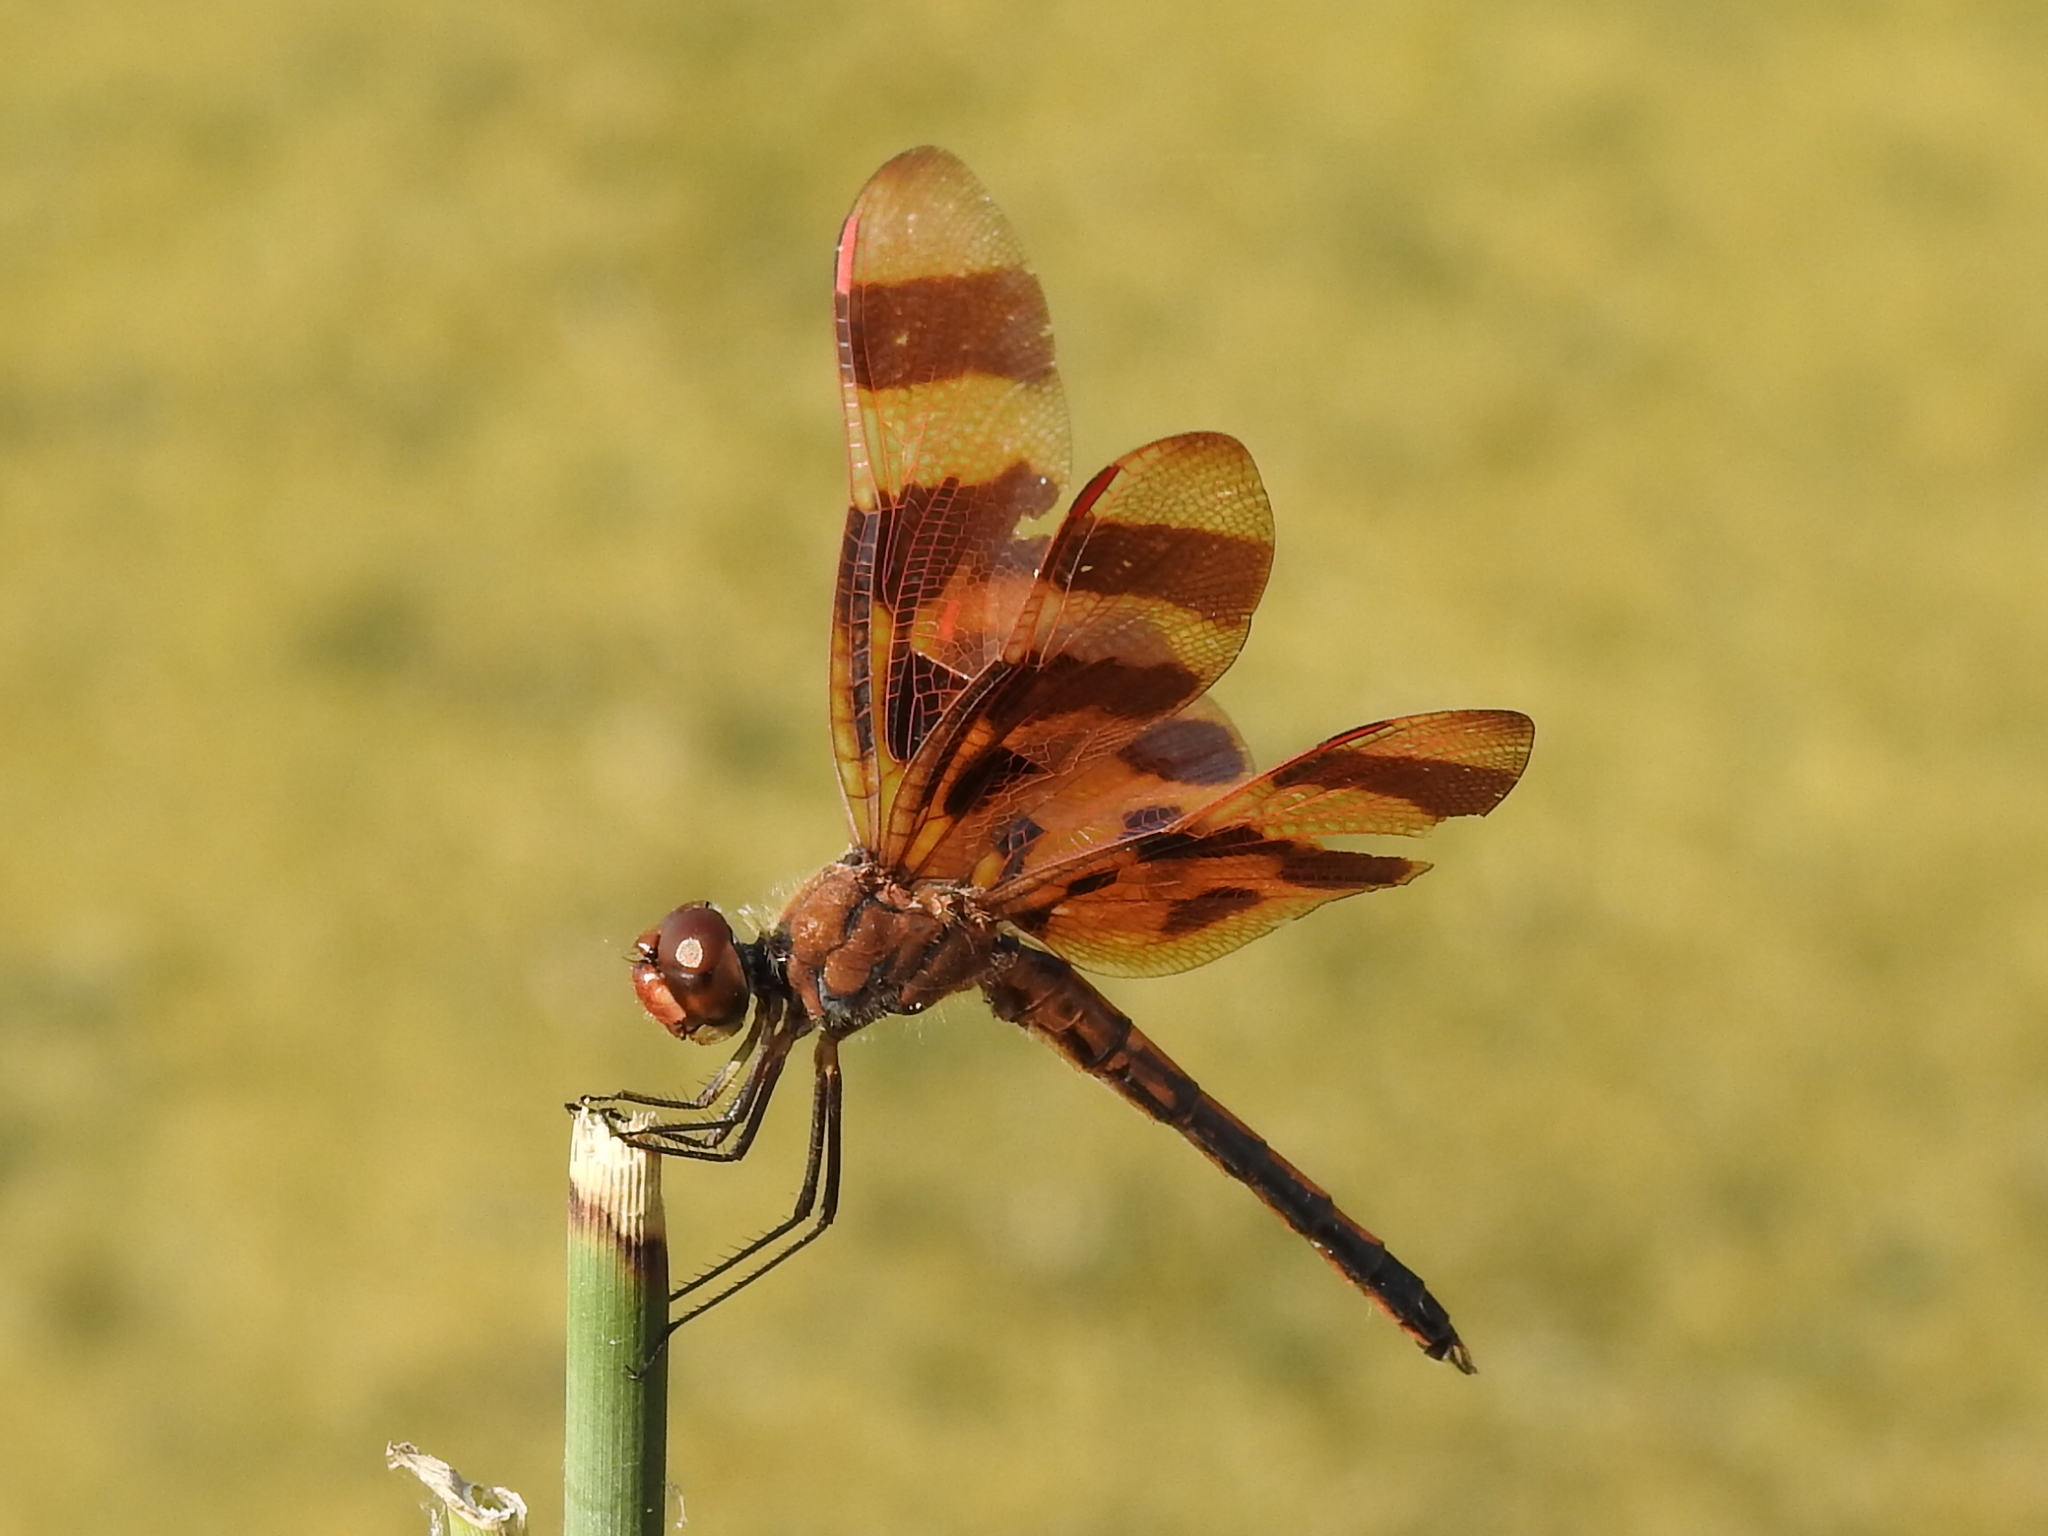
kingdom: Animalia
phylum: Arthropoda
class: Insecta
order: Odonata
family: Libellulidae
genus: Celithemis
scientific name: Celithemis eponina
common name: Halloween pennant
